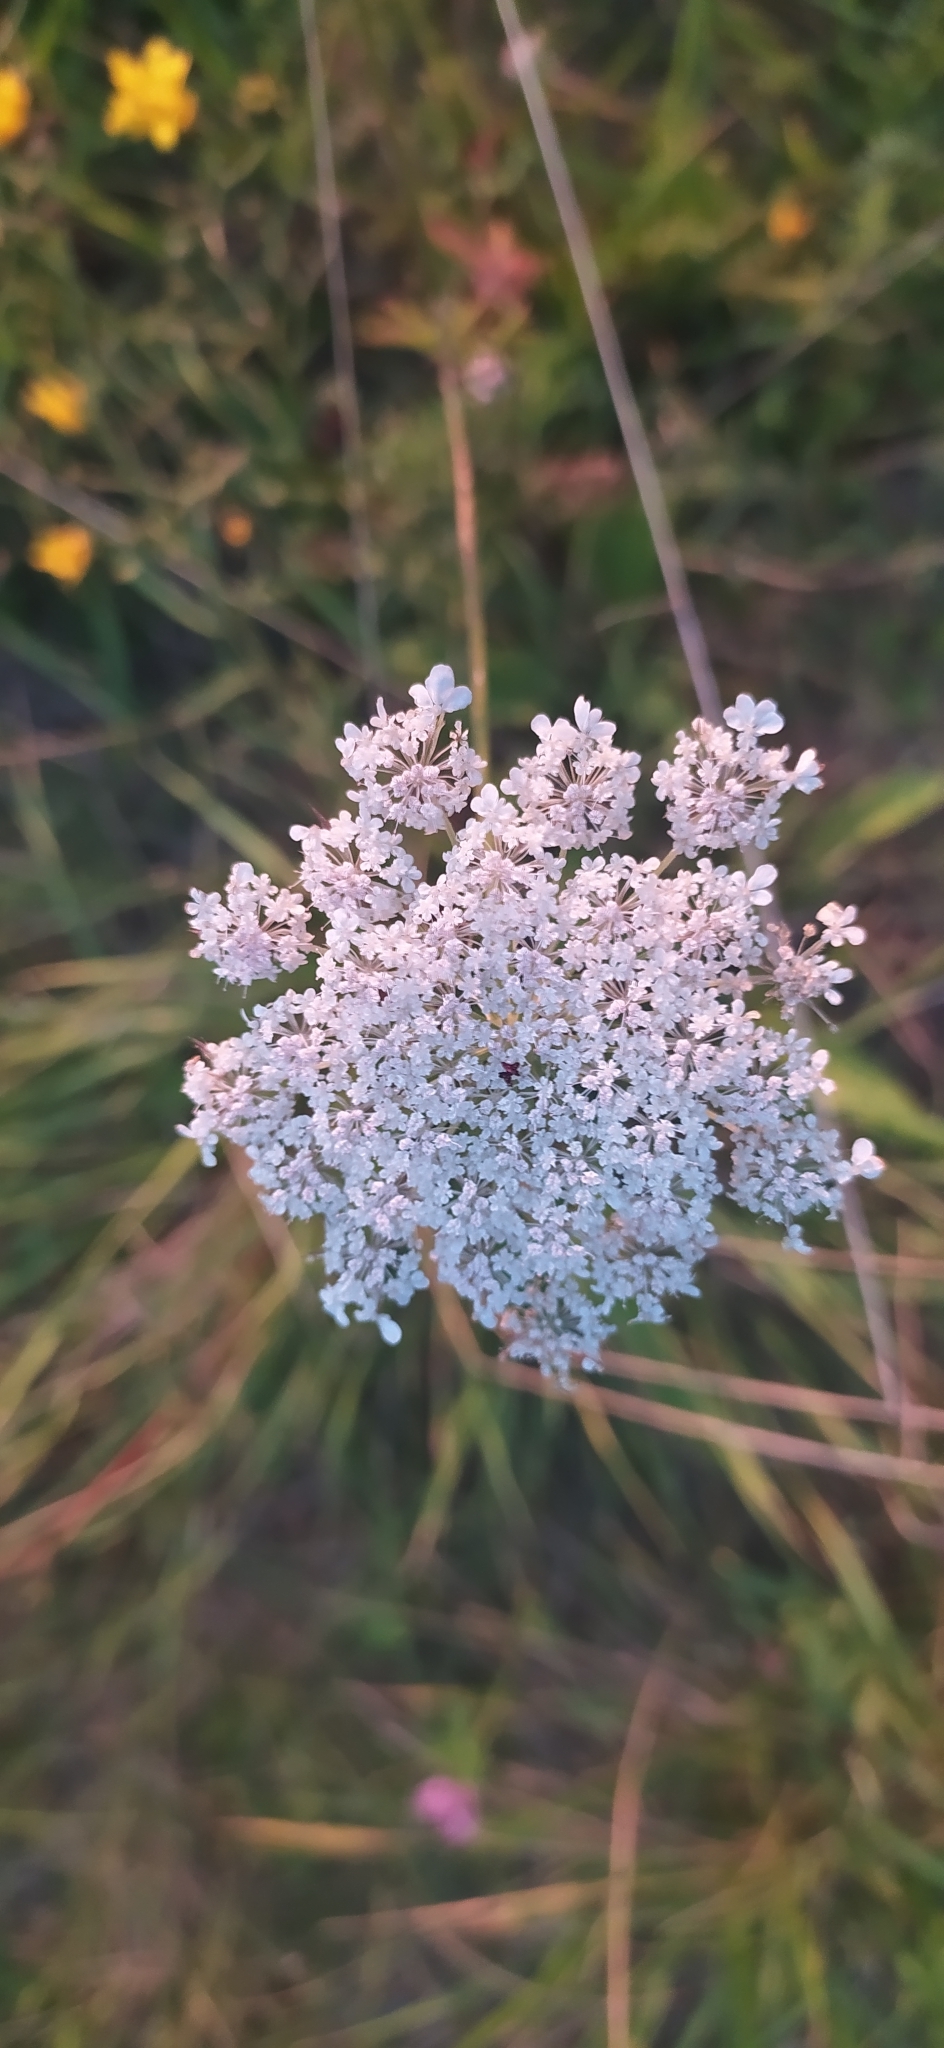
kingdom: Plantae
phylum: Tracheophyta
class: Magnoliopsida
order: Apiales
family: Apiaceae
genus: Daucus
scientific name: Daucus carota
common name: Wild carrot
